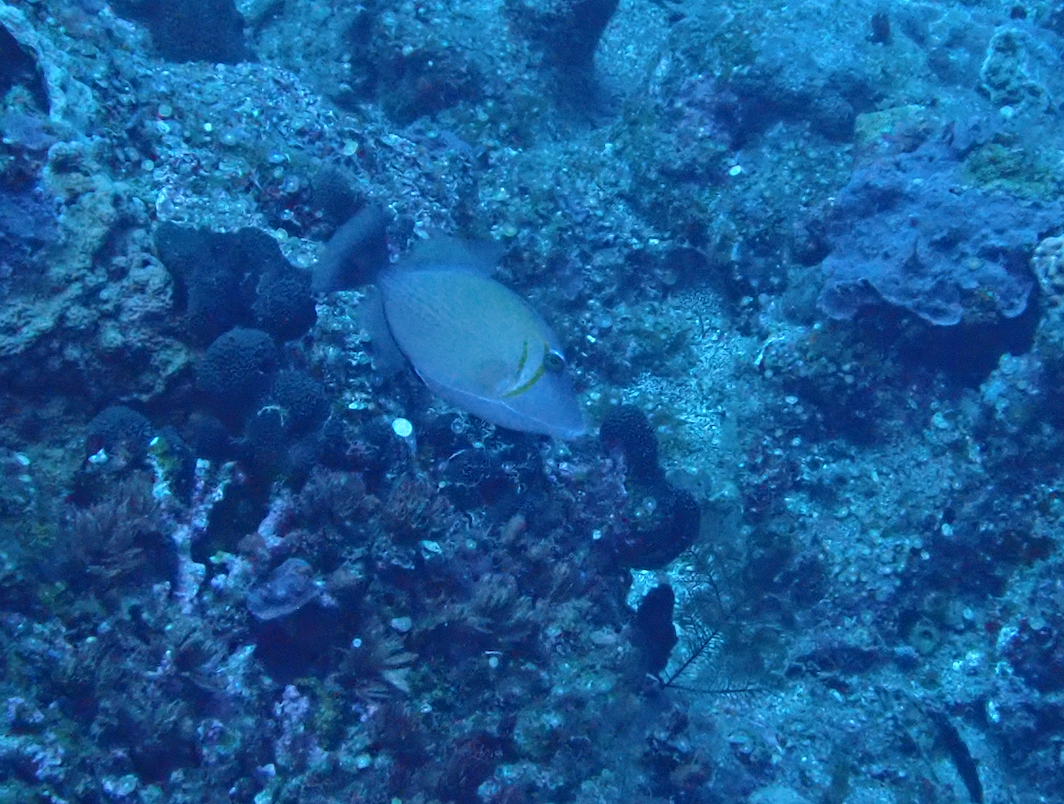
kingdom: Animalia
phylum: Chordata
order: Tetraodontiformes
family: Balistidae
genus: Sufflamen
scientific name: Sufflamen bursa
